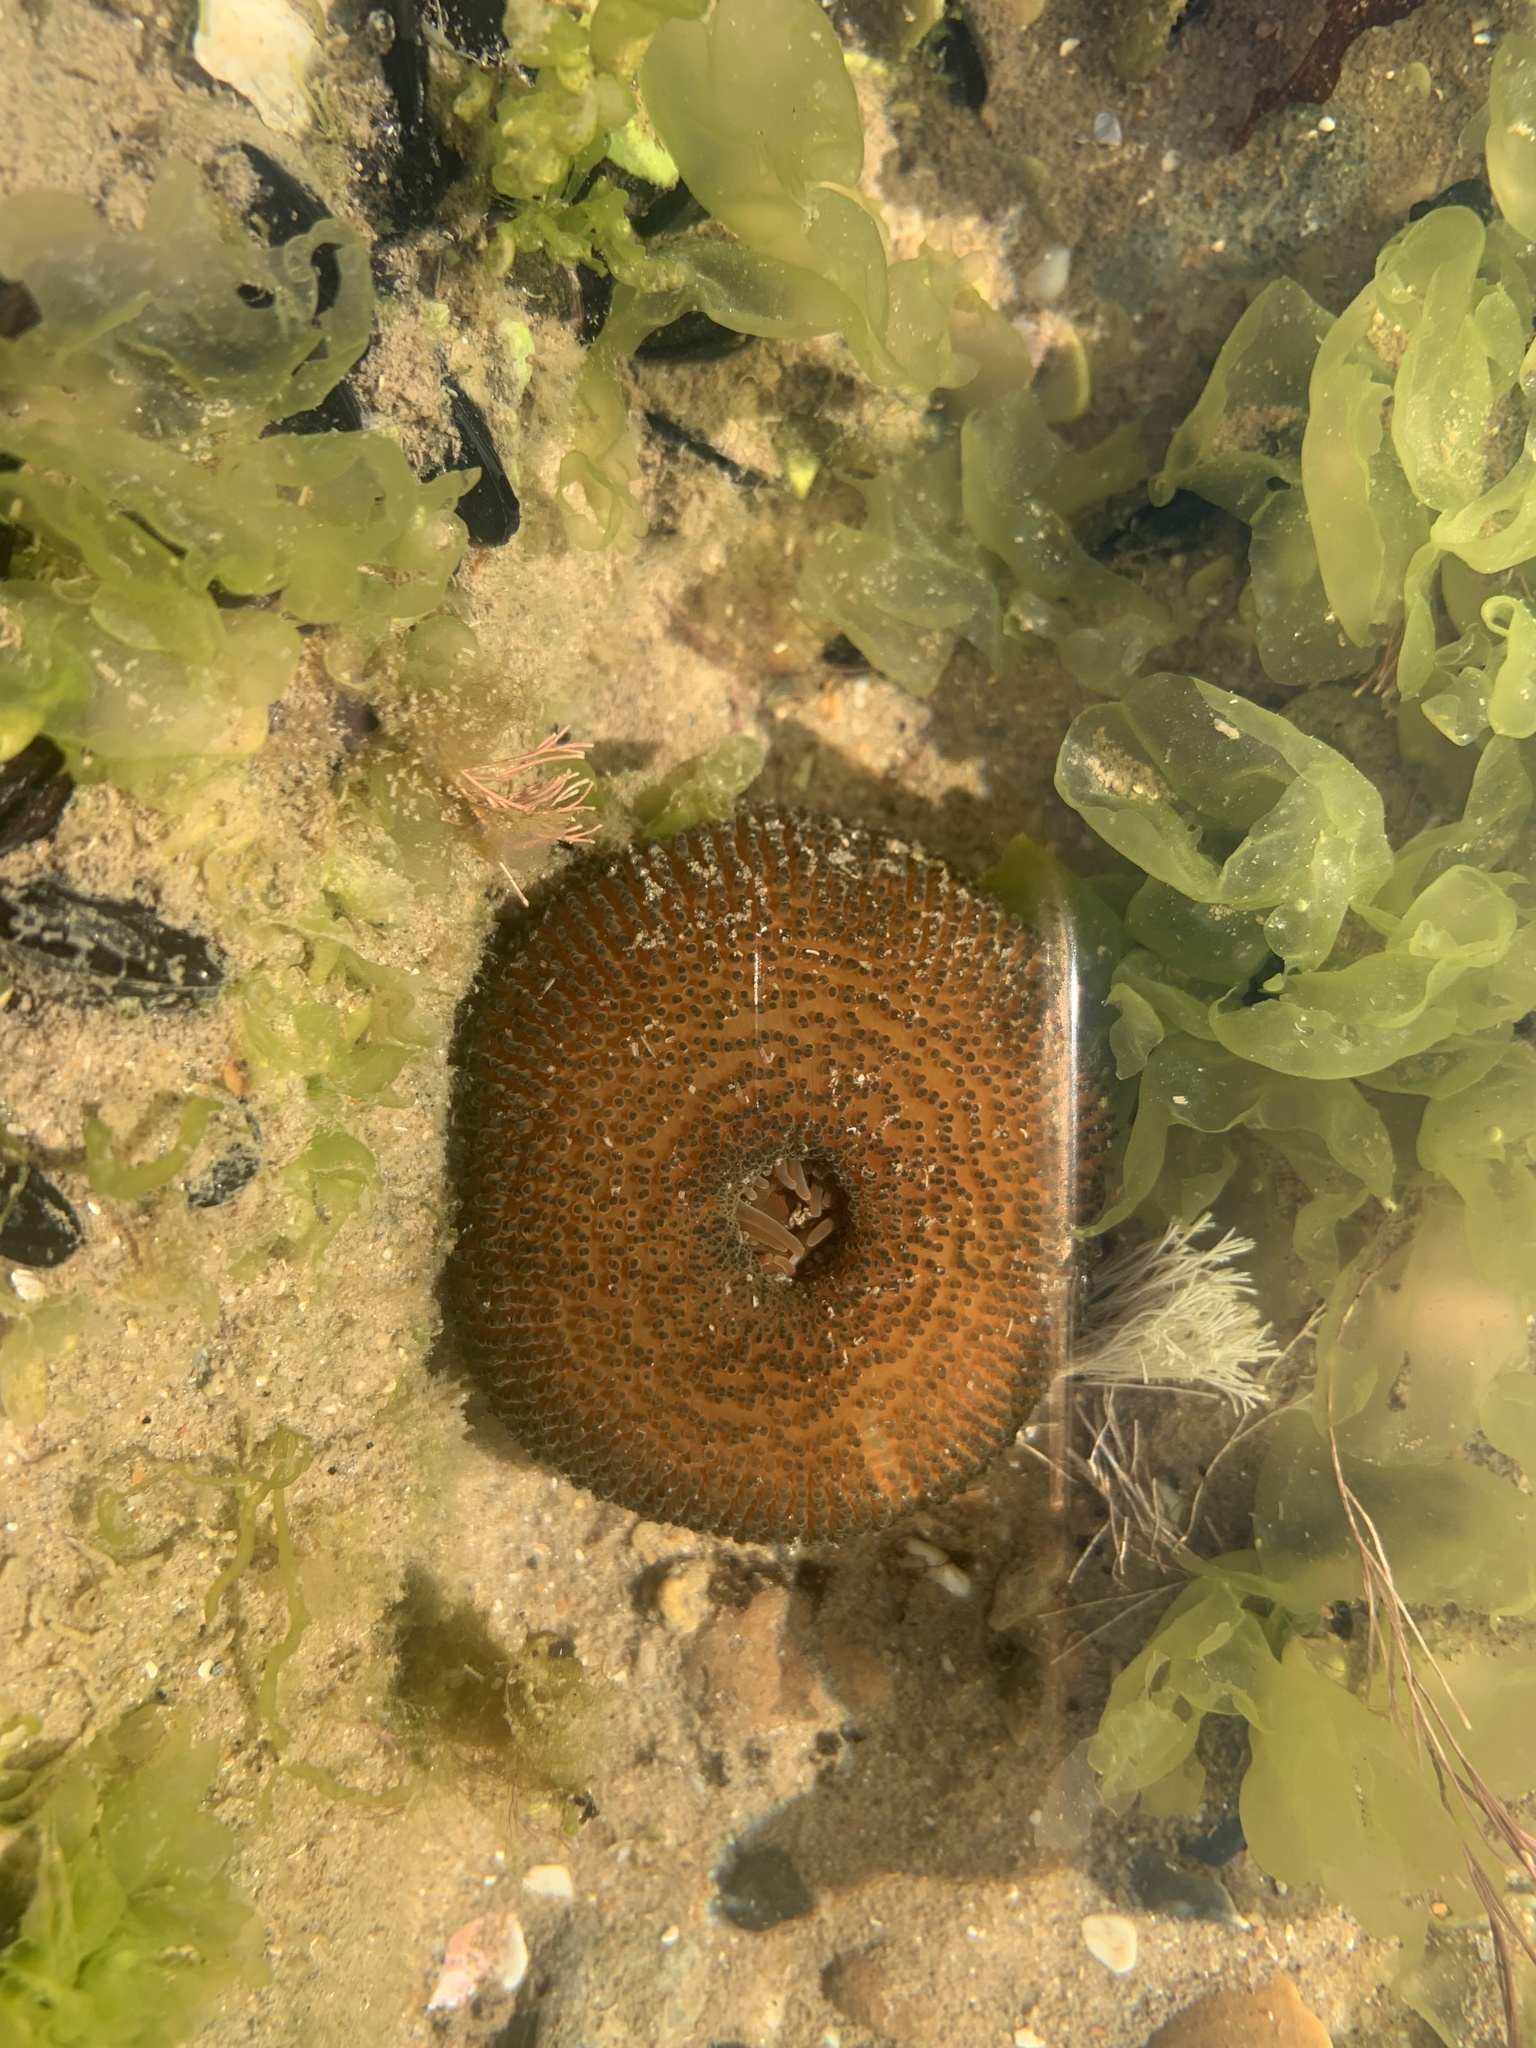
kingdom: Animalia
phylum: Cnidaria
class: Anthozoa
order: Actiniaria
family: Actiniidae
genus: Bunodosoma
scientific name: Bunodosoma cangicum
